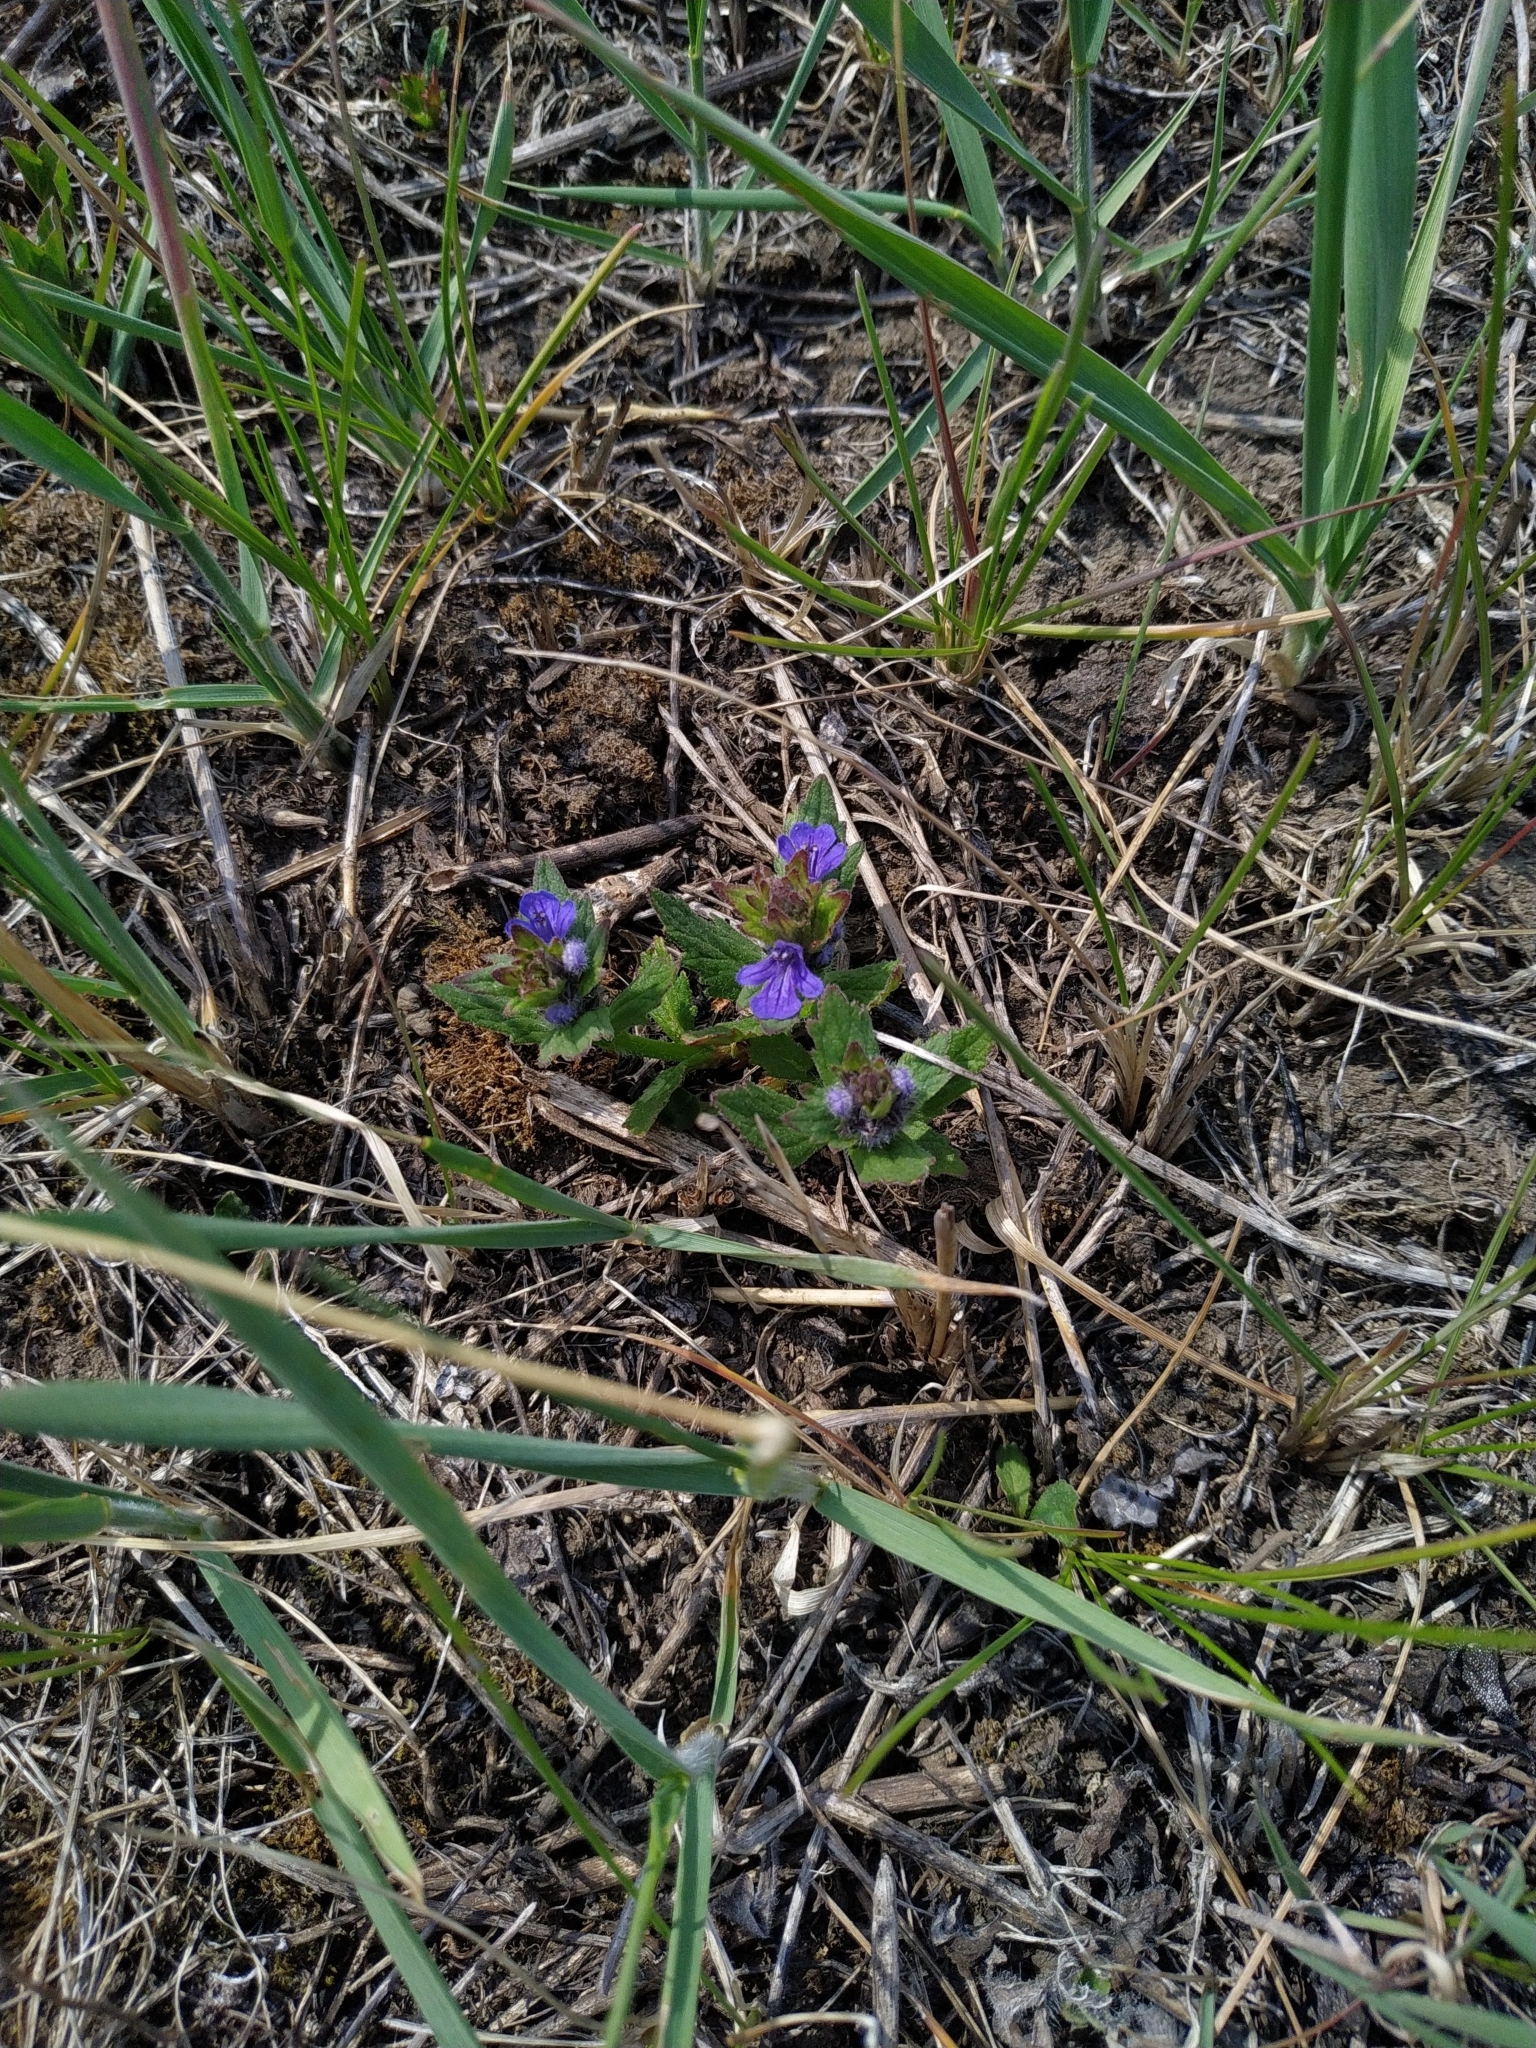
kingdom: Plantae
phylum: Tracheophyta
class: Magnoliopsida
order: Lamiales
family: Lamiaceae
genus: Ajuga
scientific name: Ajuga genevensis
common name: Blue bugle
